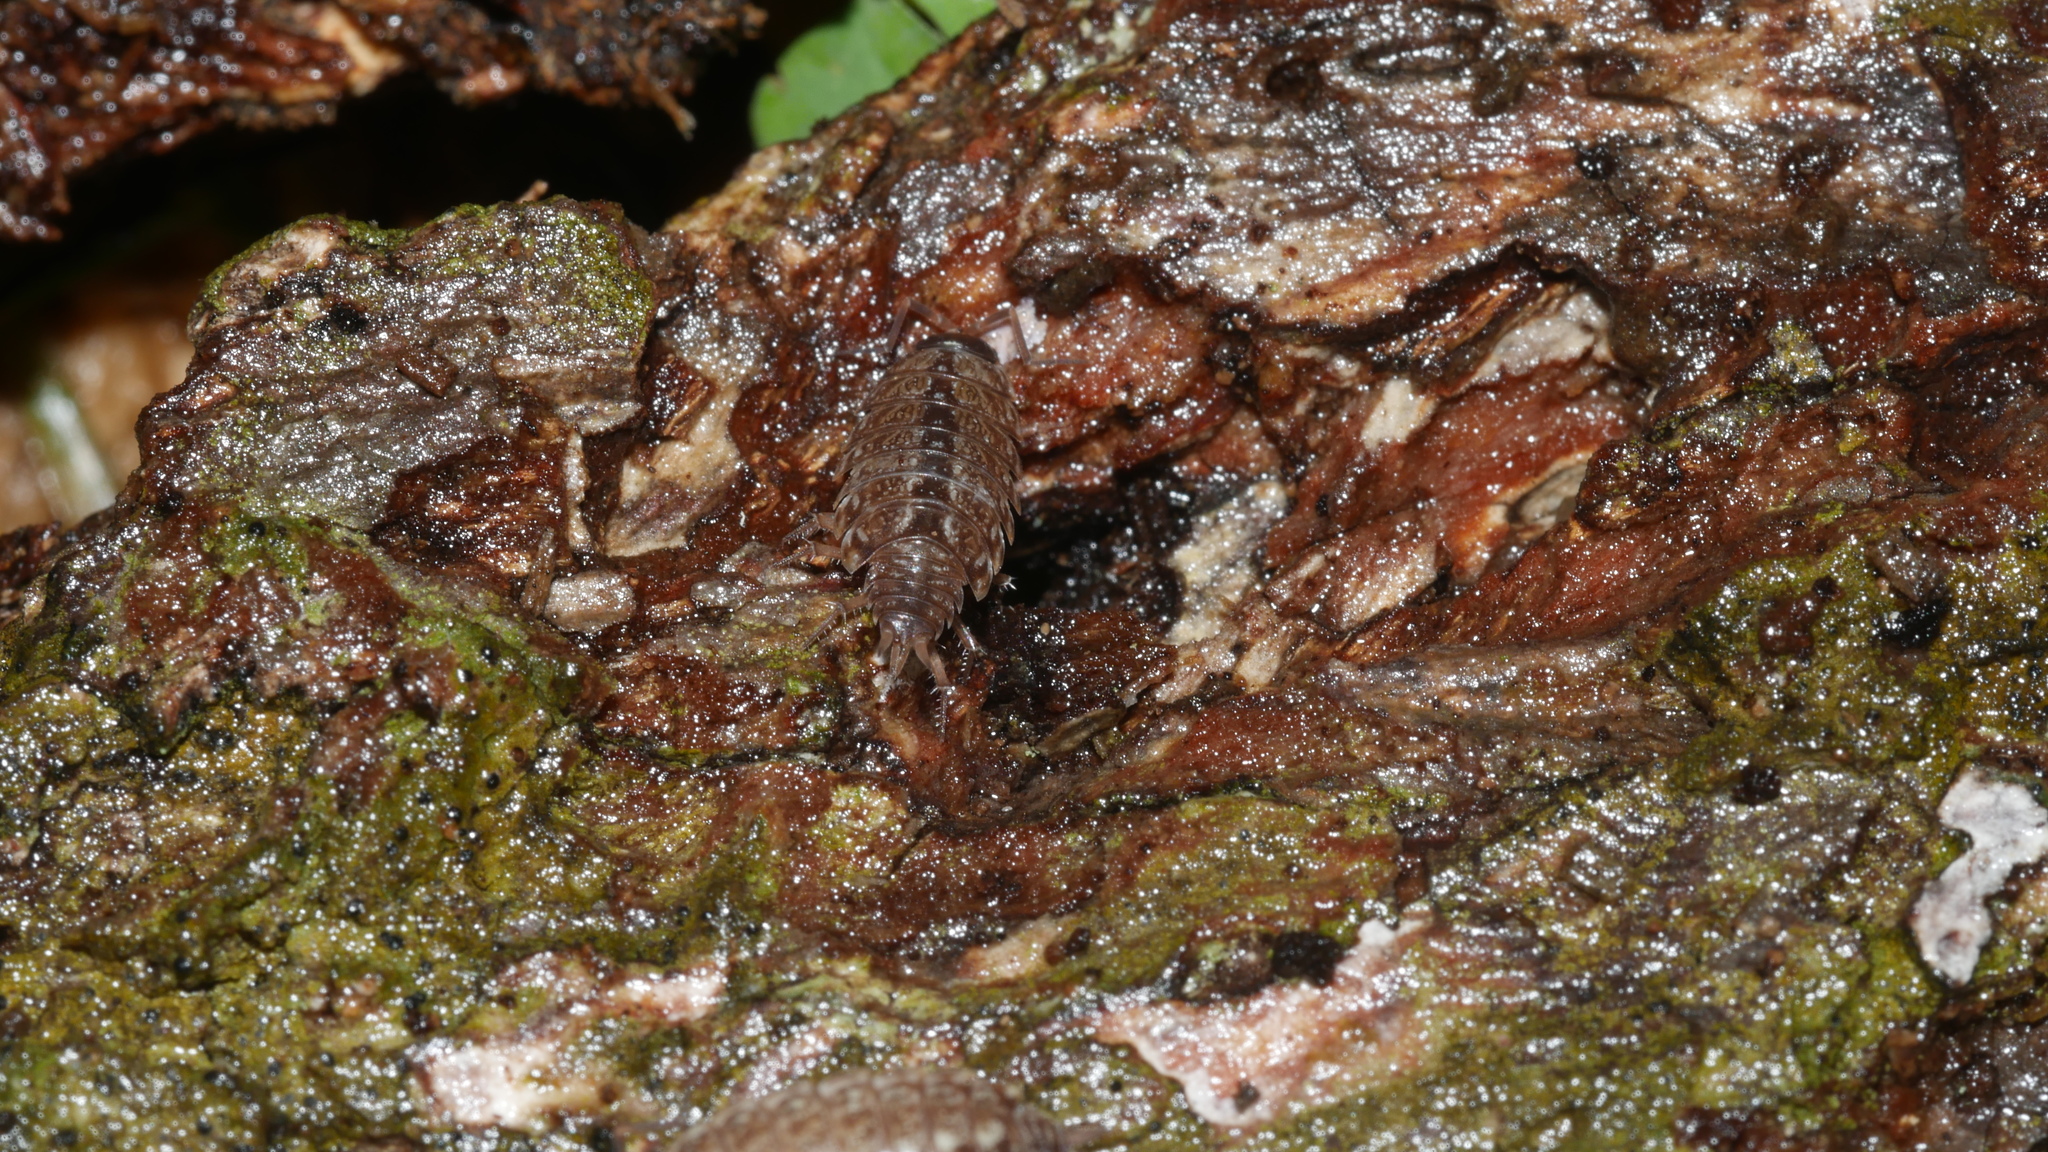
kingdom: Animalia
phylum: Arthropoda
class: Malacostraca
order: Isopoda
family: Philosciidae
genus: Philoscia
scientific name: Philoscia muscorum
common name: Common striped woodlouse
